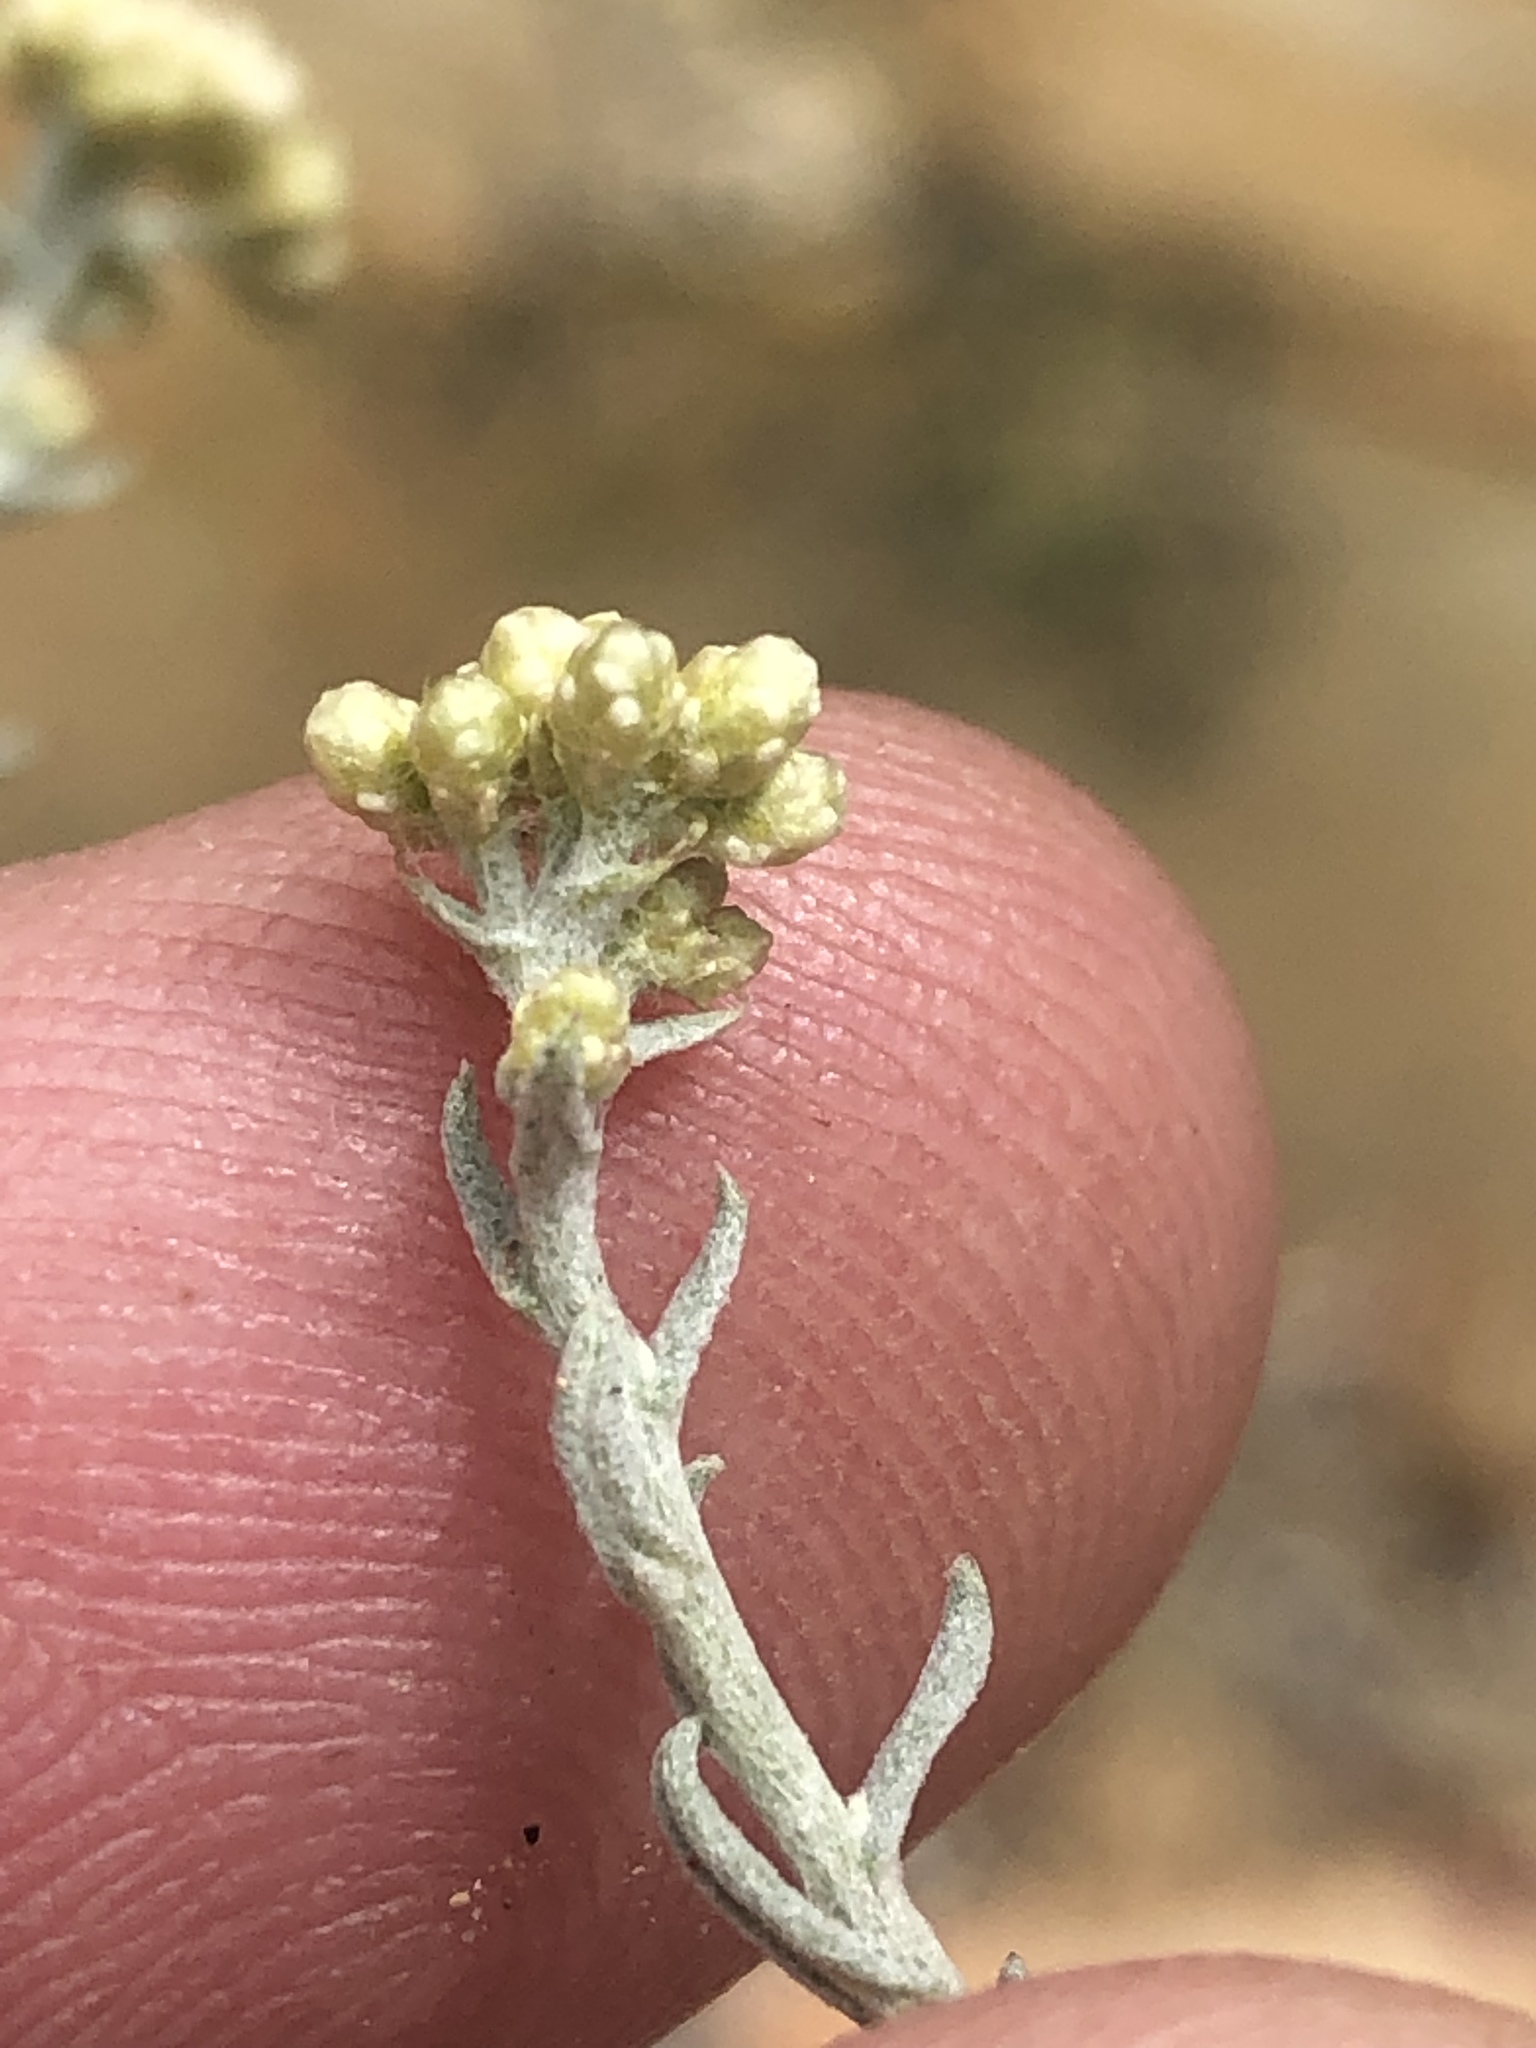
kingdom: Plantae
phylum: Tracheophyta
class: Magnoliopsida
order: Asterales
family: Asteraceae
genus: Helichrysum
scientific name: Helichrysum rosum
